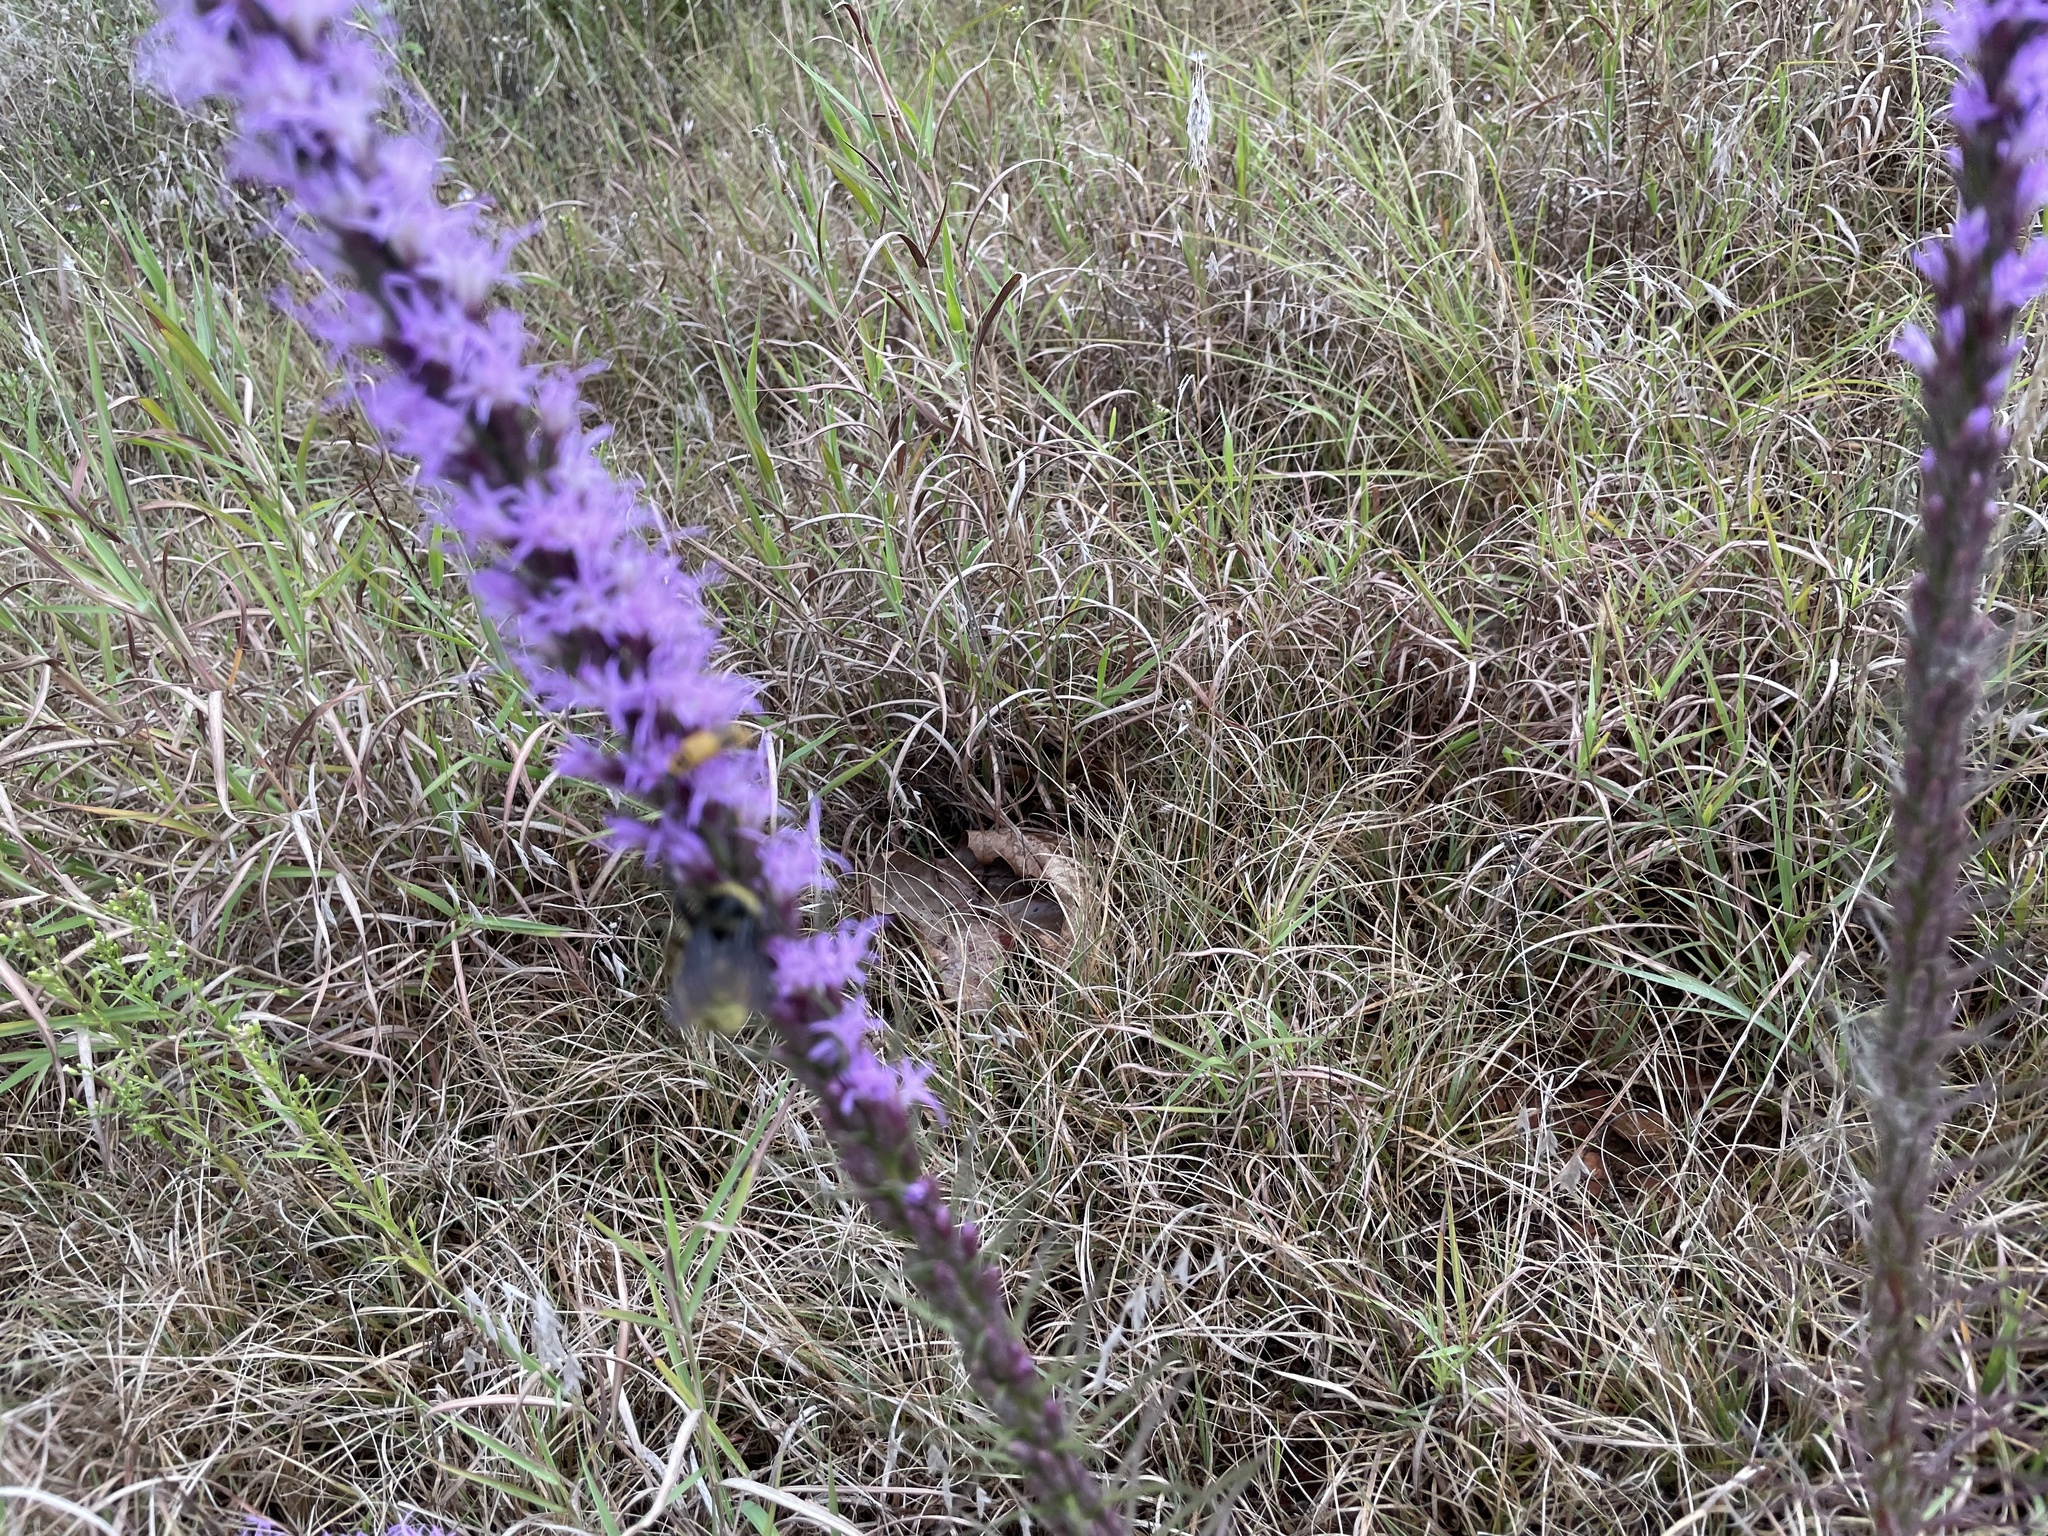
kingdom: Plantae
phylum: Tracheophyta
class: Magnoliopsida
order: Asterales
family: Asteraceae
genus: Liatris
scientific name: Liatris punctata
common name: Dotted gayfeather
